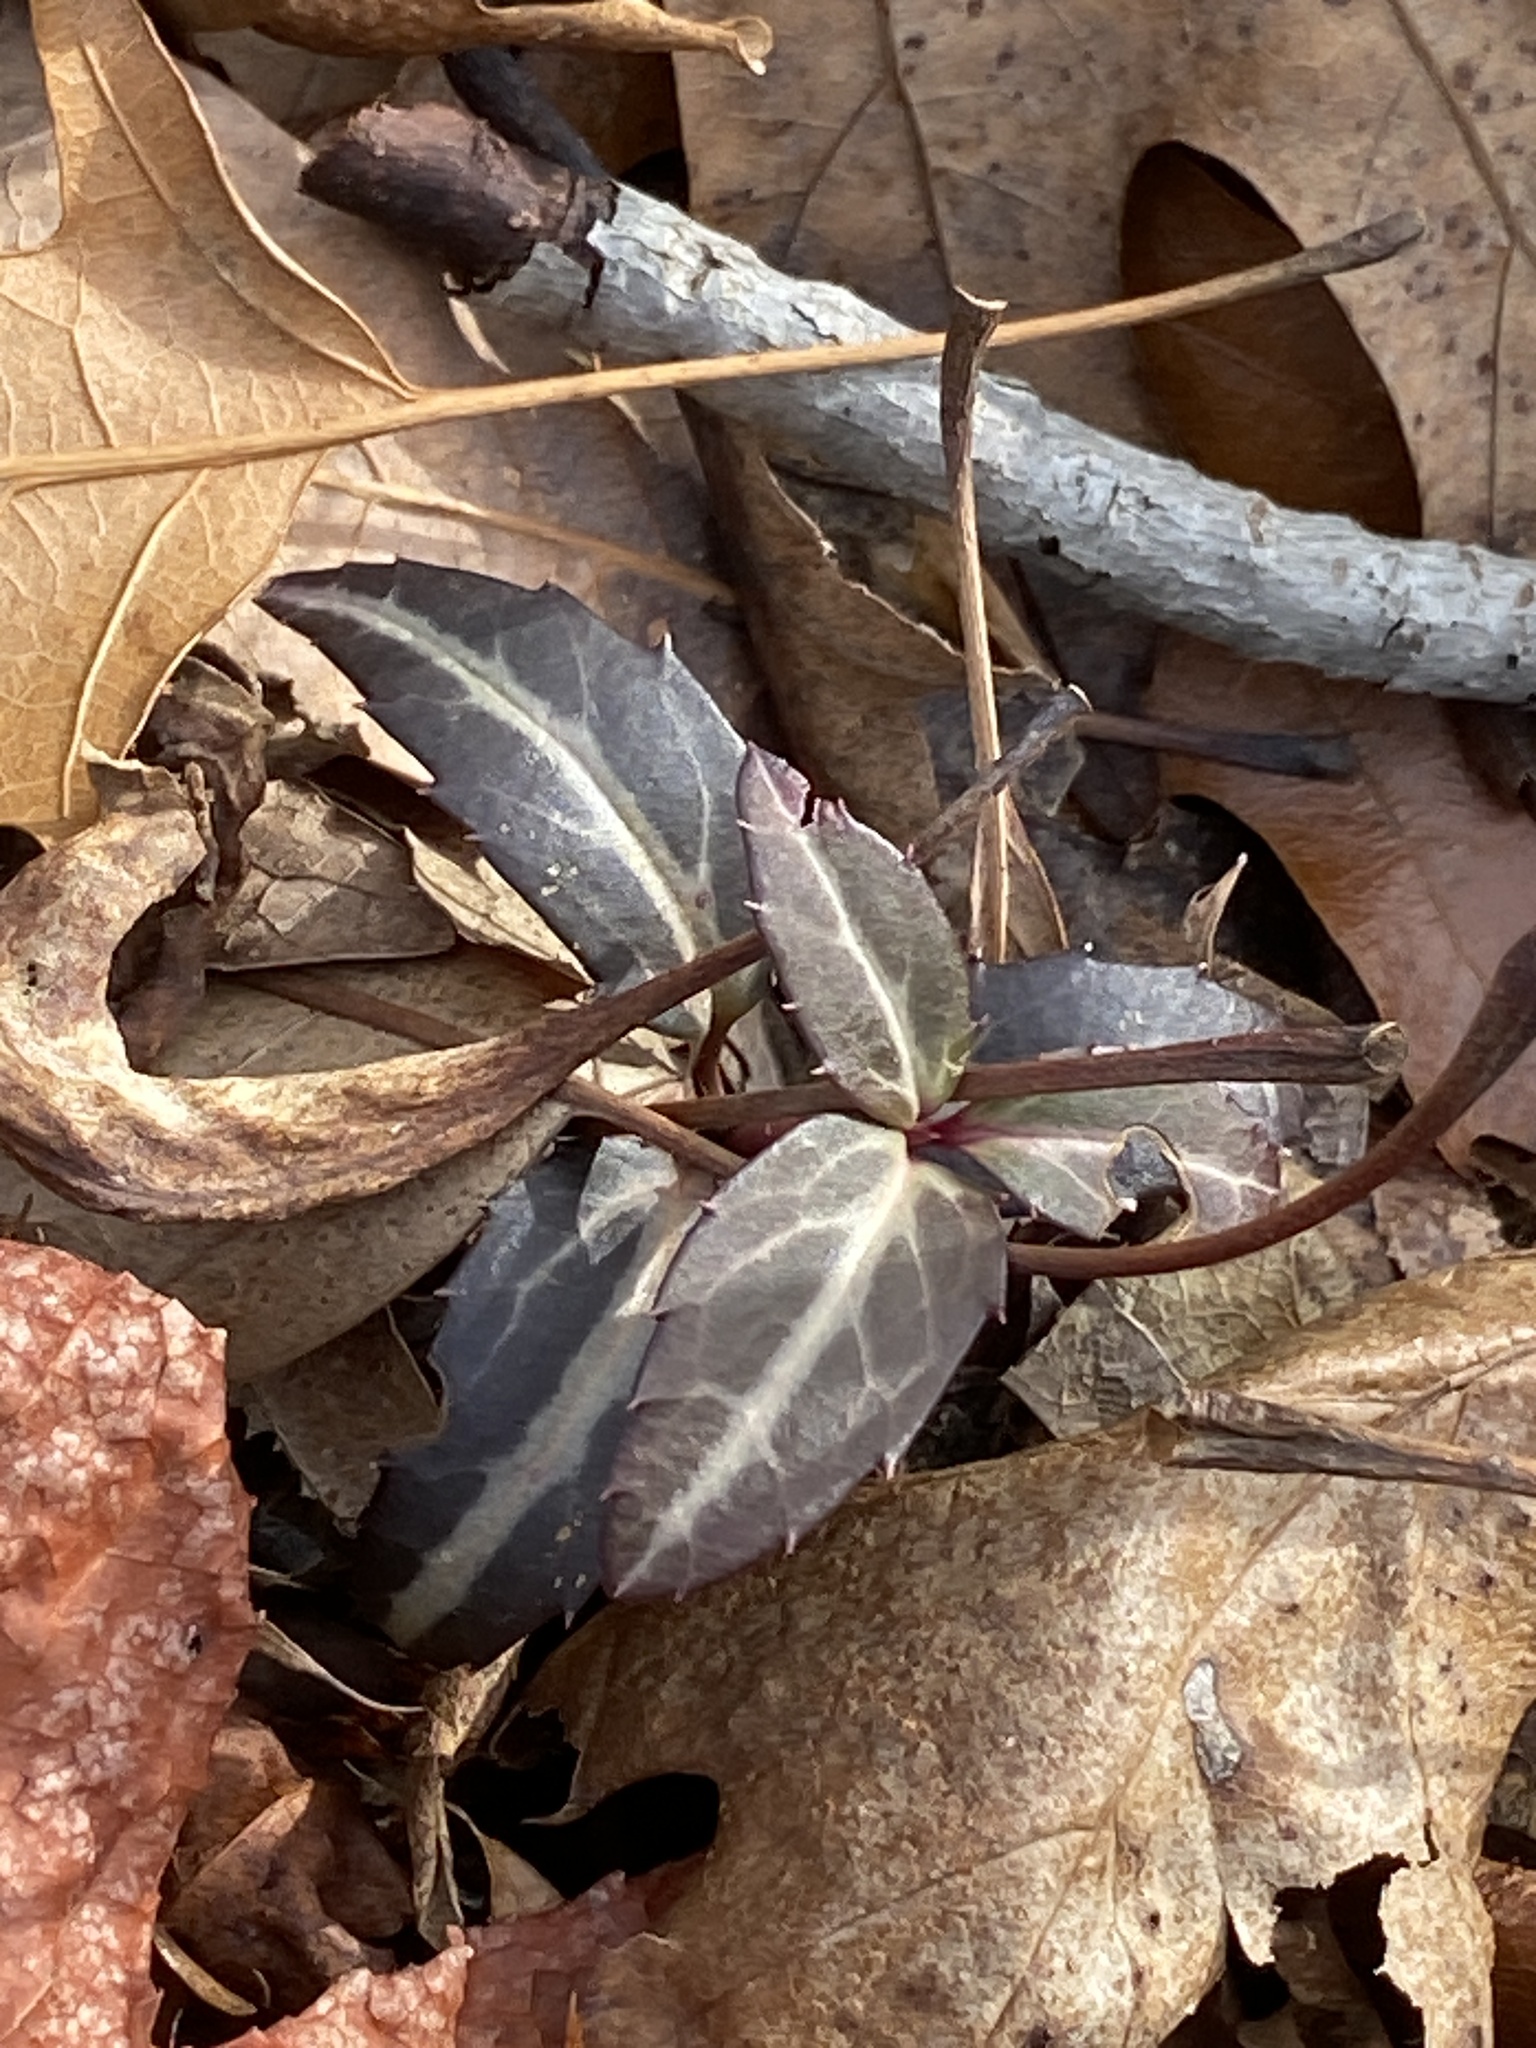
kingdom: Plantae
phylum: Tracheophyta
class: Magnoliopsida
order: Ericales
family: Ericaceae
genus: Chimaphila
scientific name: Chimaphila maculata
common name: Spotted pipsissewa
